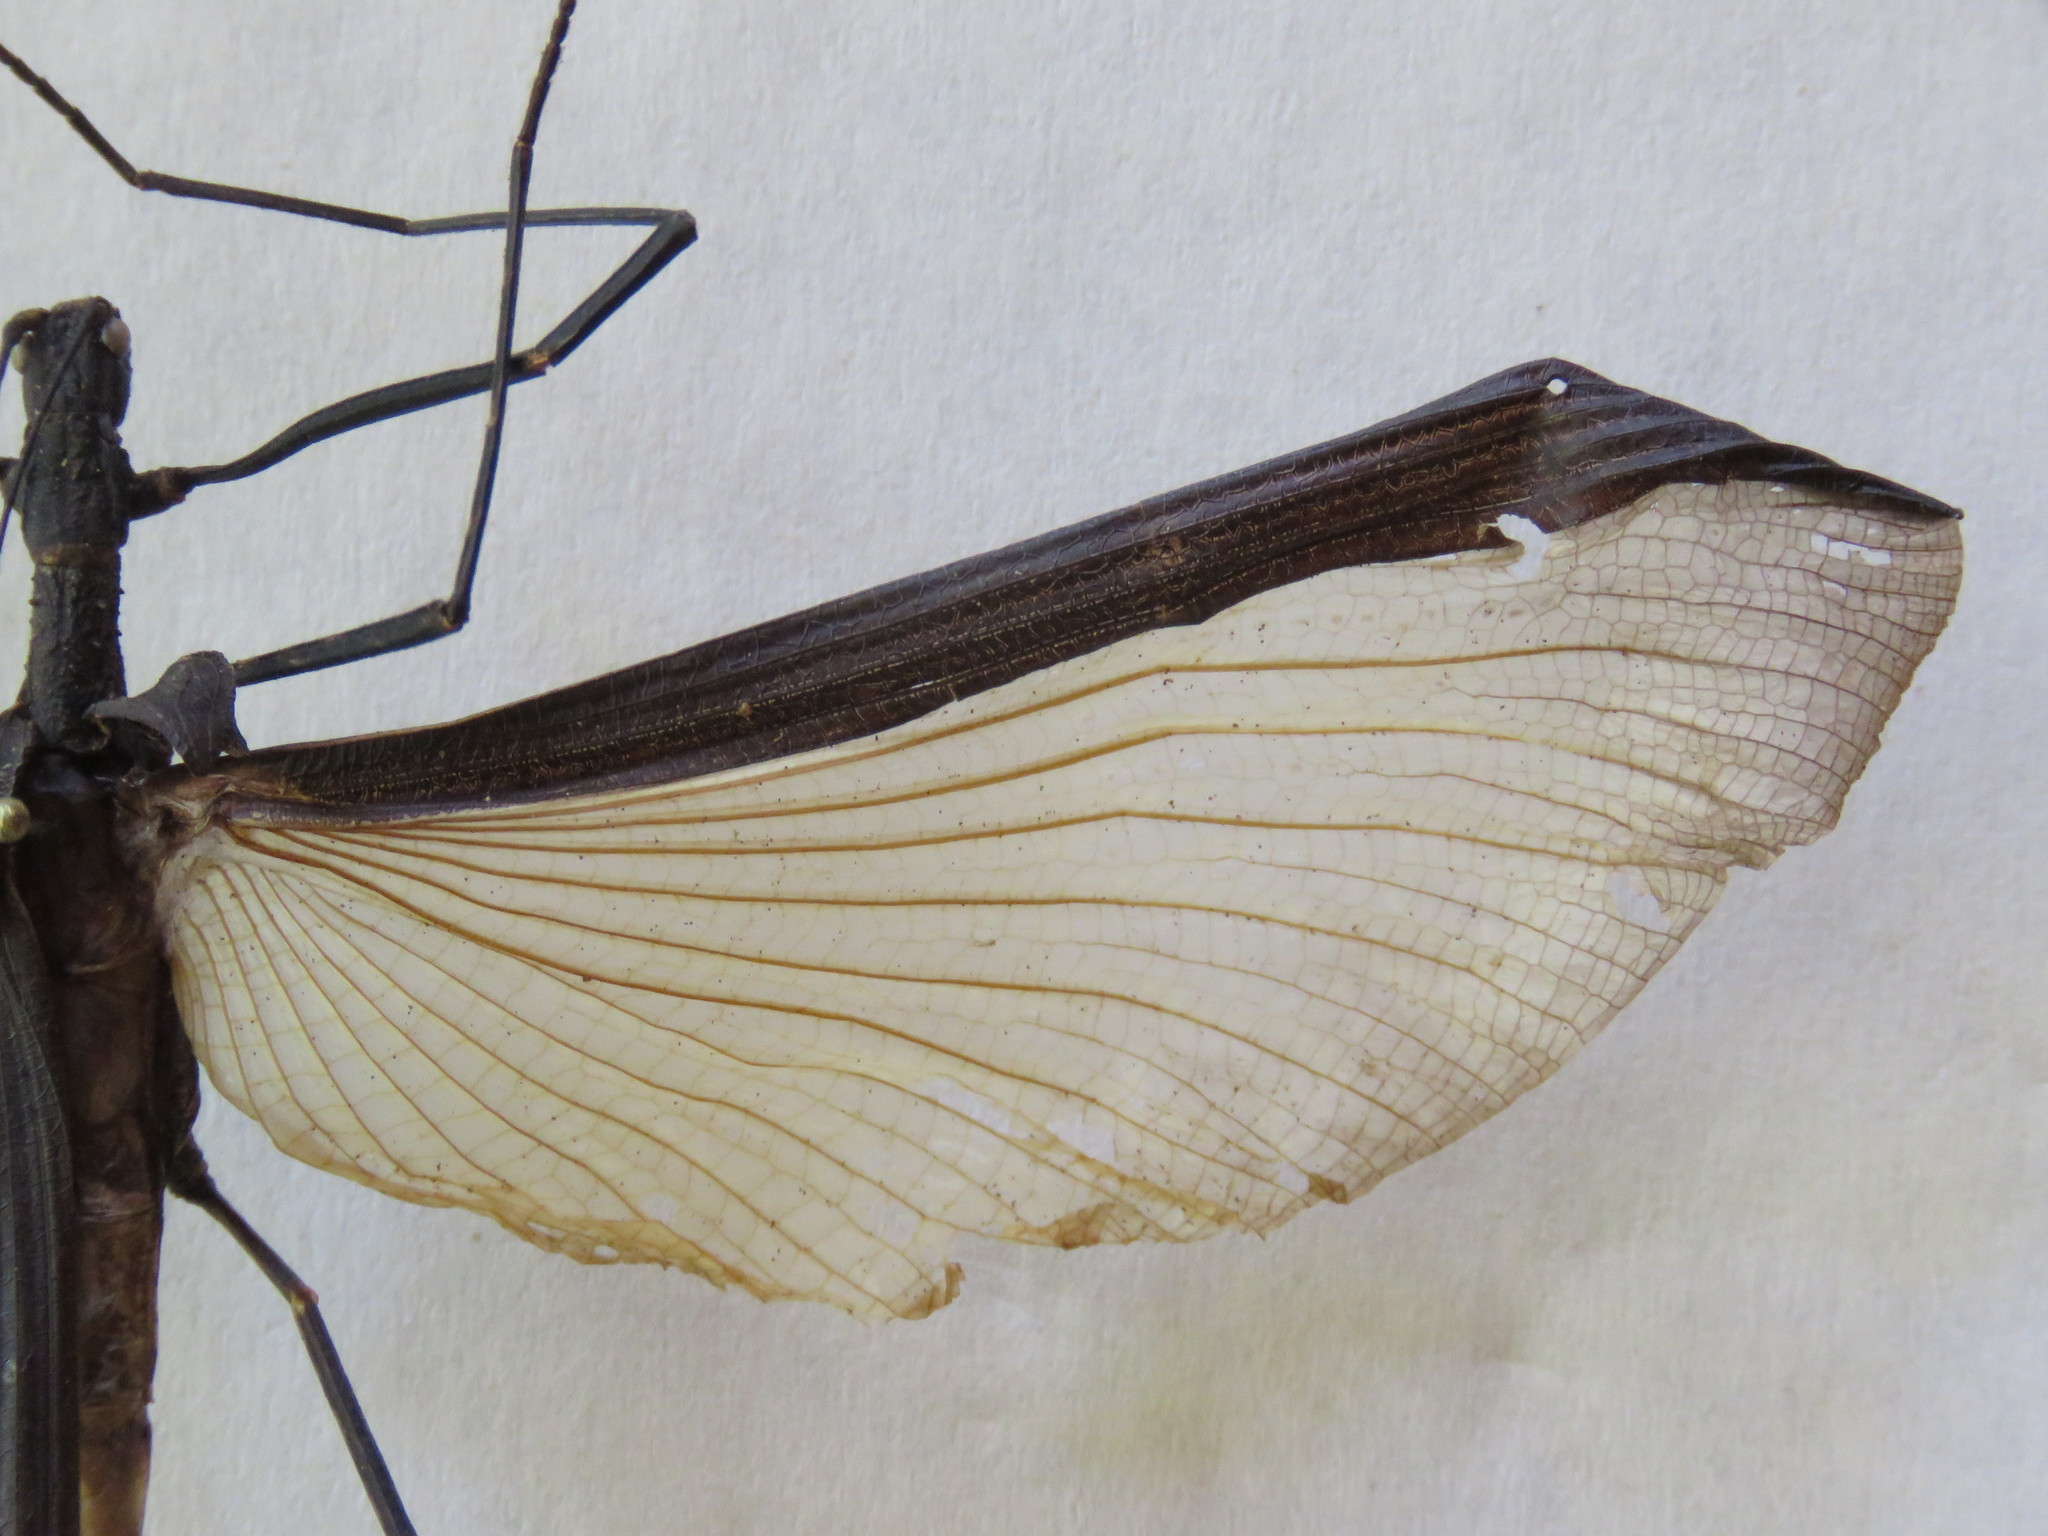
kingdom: Animalia
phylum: Arthropoda
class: Insecta
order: Phasmida
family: Pseudophasmatidae
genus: Pseudophasma
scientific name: Pseudophasma unicolor
